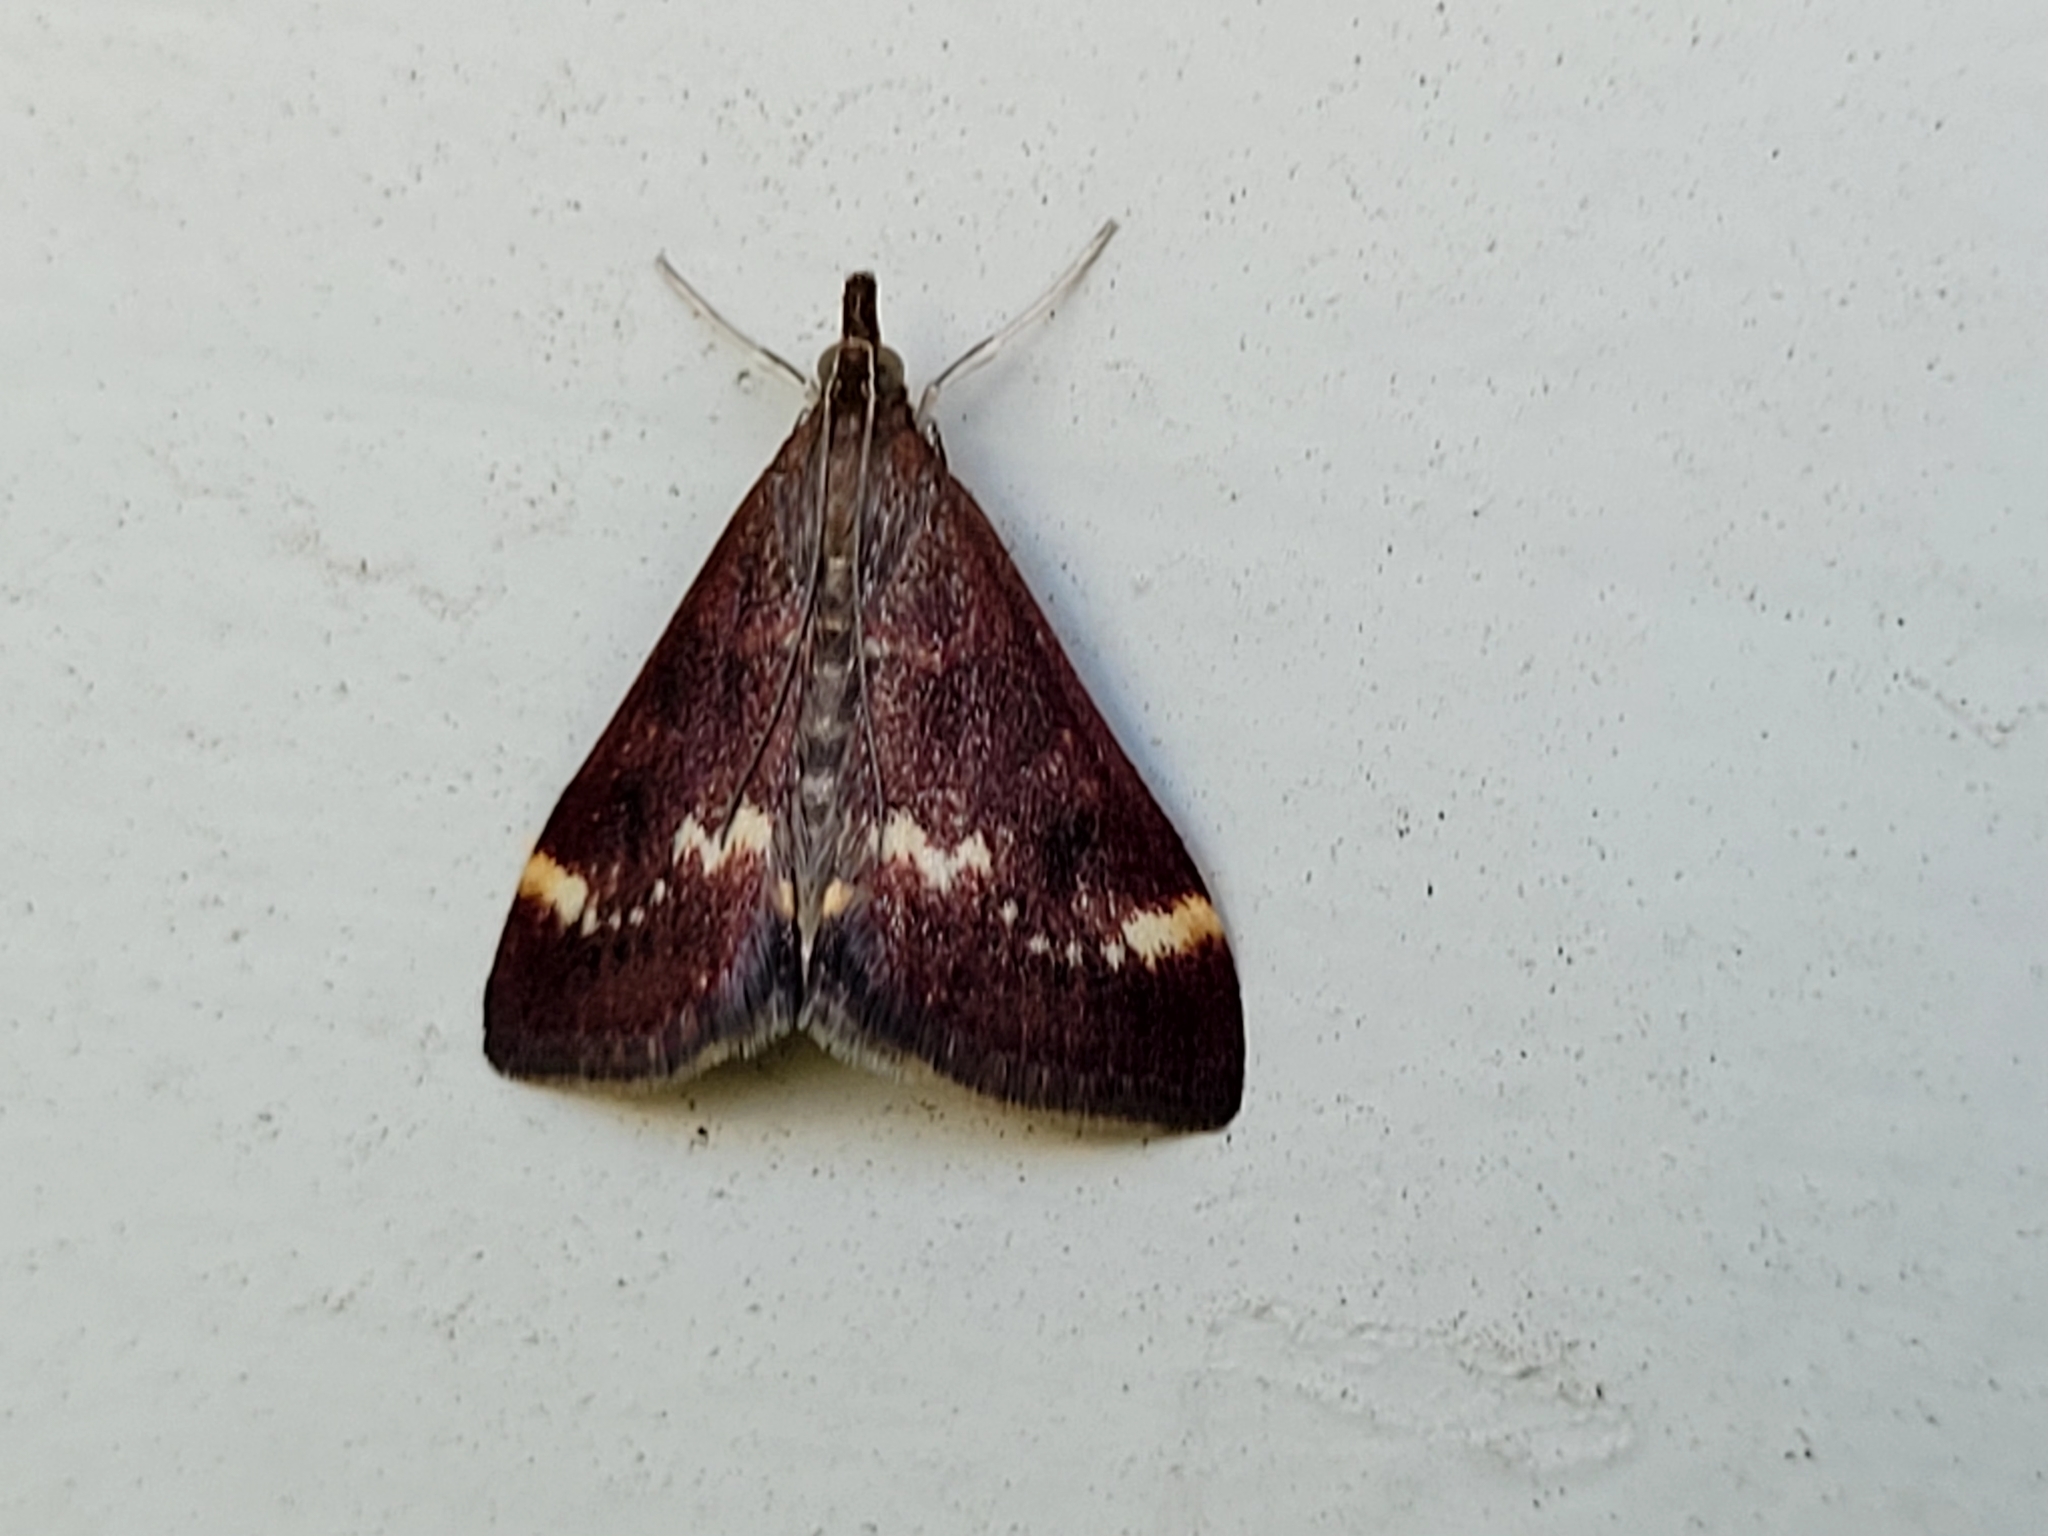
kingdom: Animalia
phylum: Arthropoda
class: Insecta
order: Lepidoptera
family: Crambidae
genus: Pyrausta
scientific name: Pyrausta nicalis
